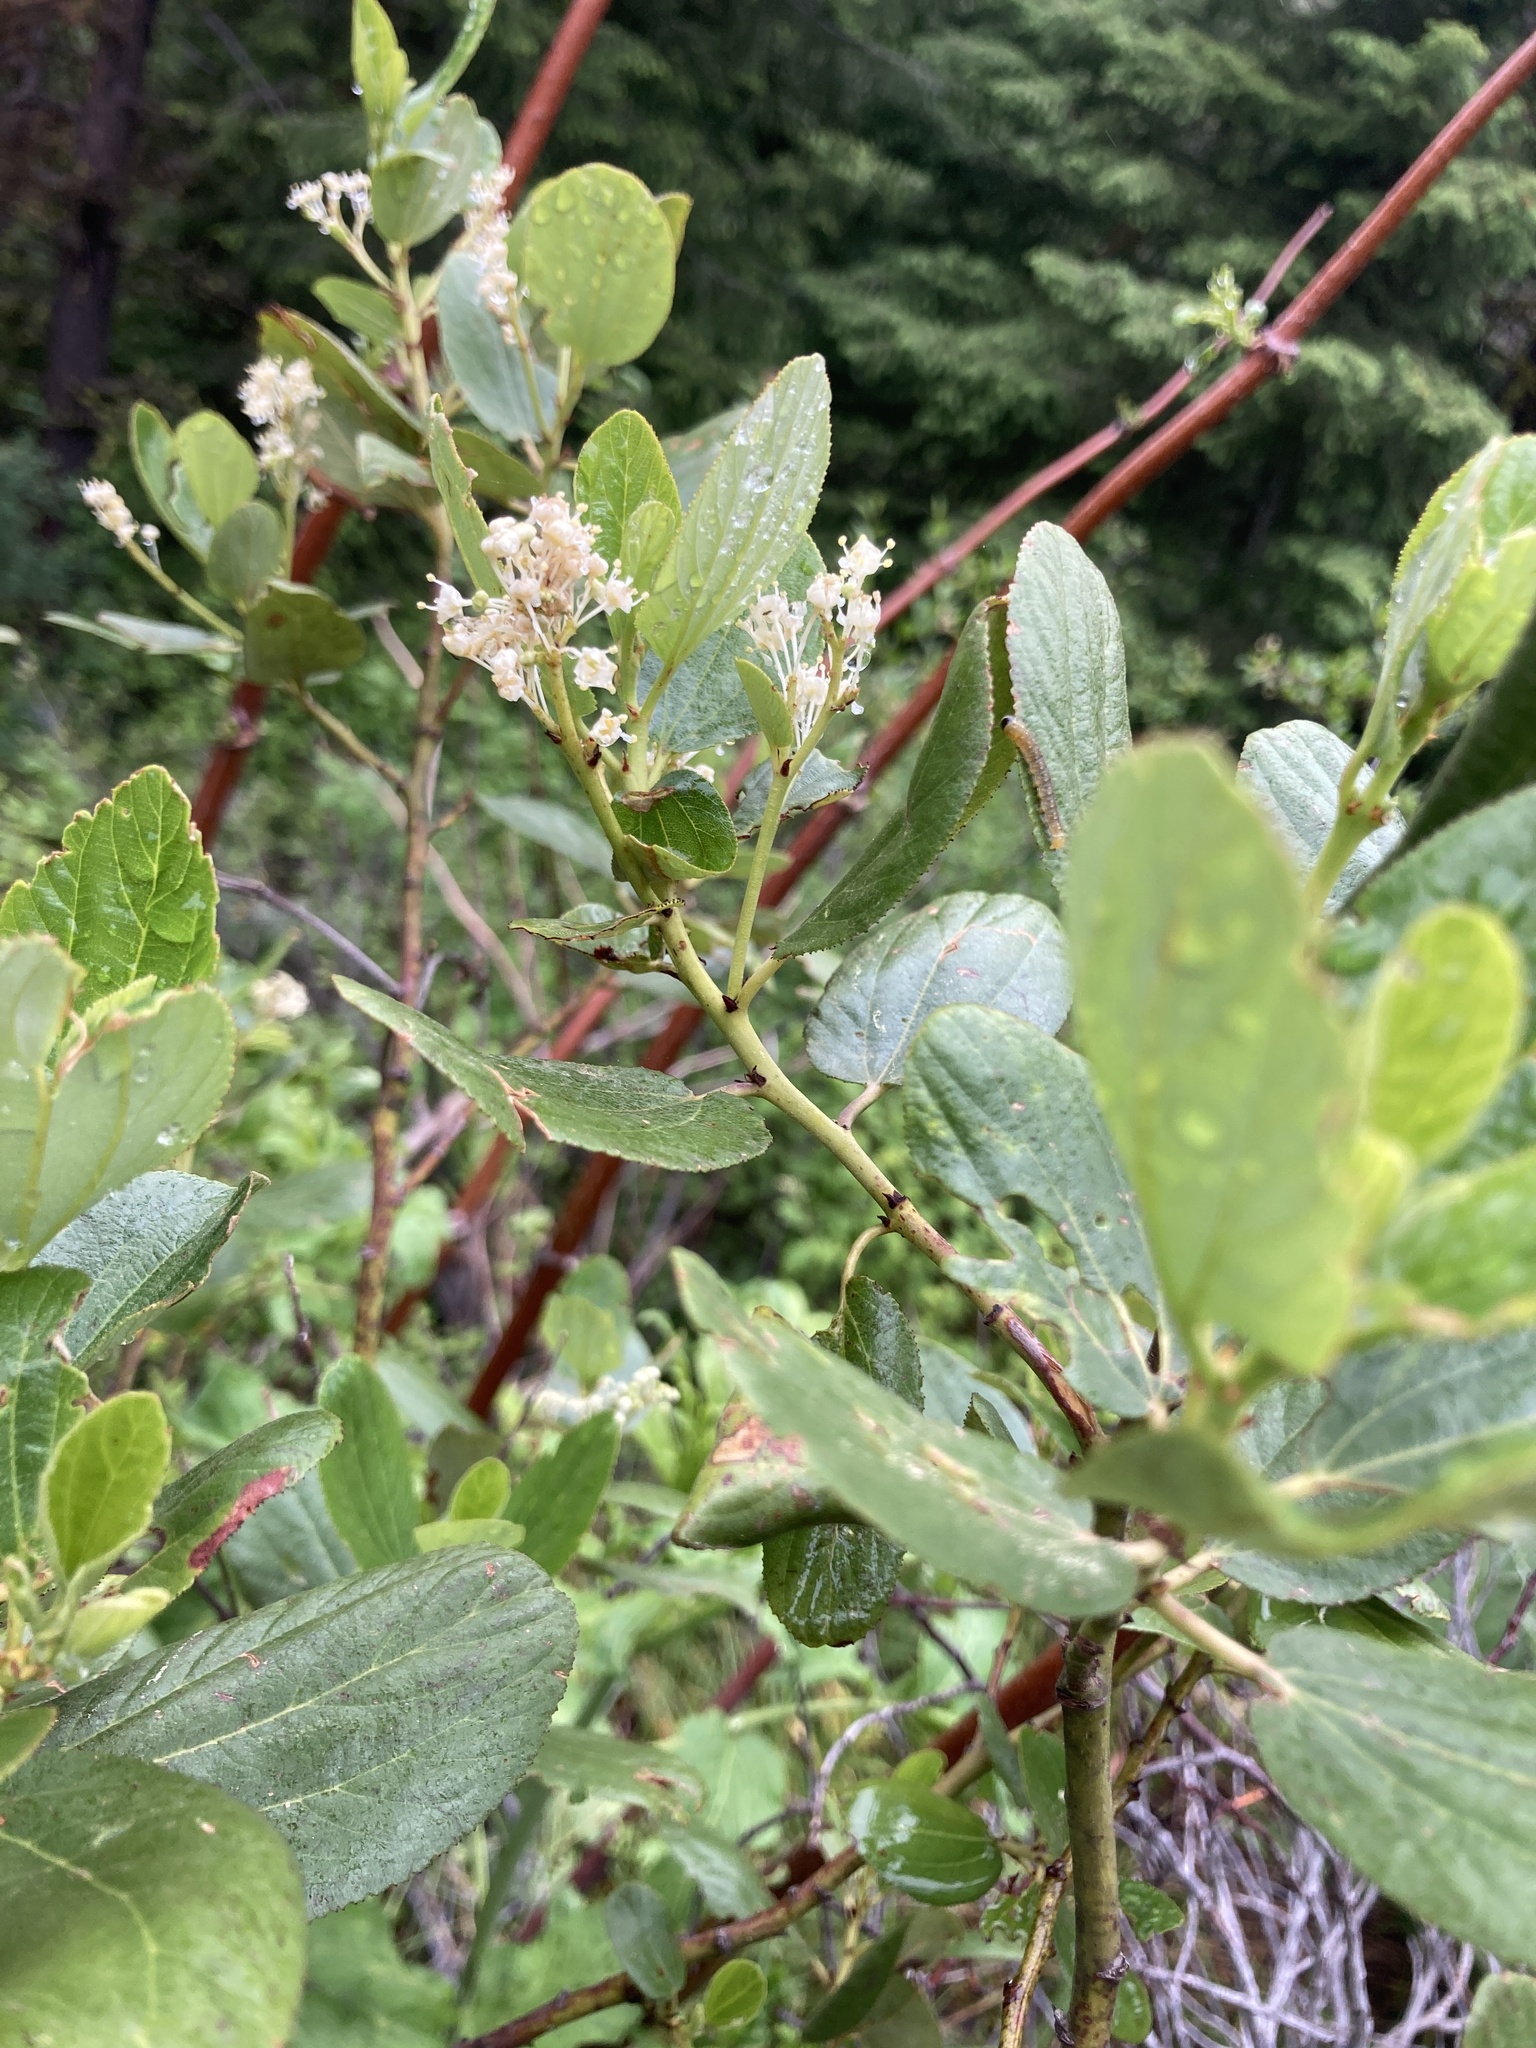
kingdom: Plantae
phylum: Tracheophyta
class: Magnoliopsida
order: Rosales
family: Rhamnaceae
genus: Ceanothus
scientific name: Ceanothus velutinus
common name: Snowbrush
